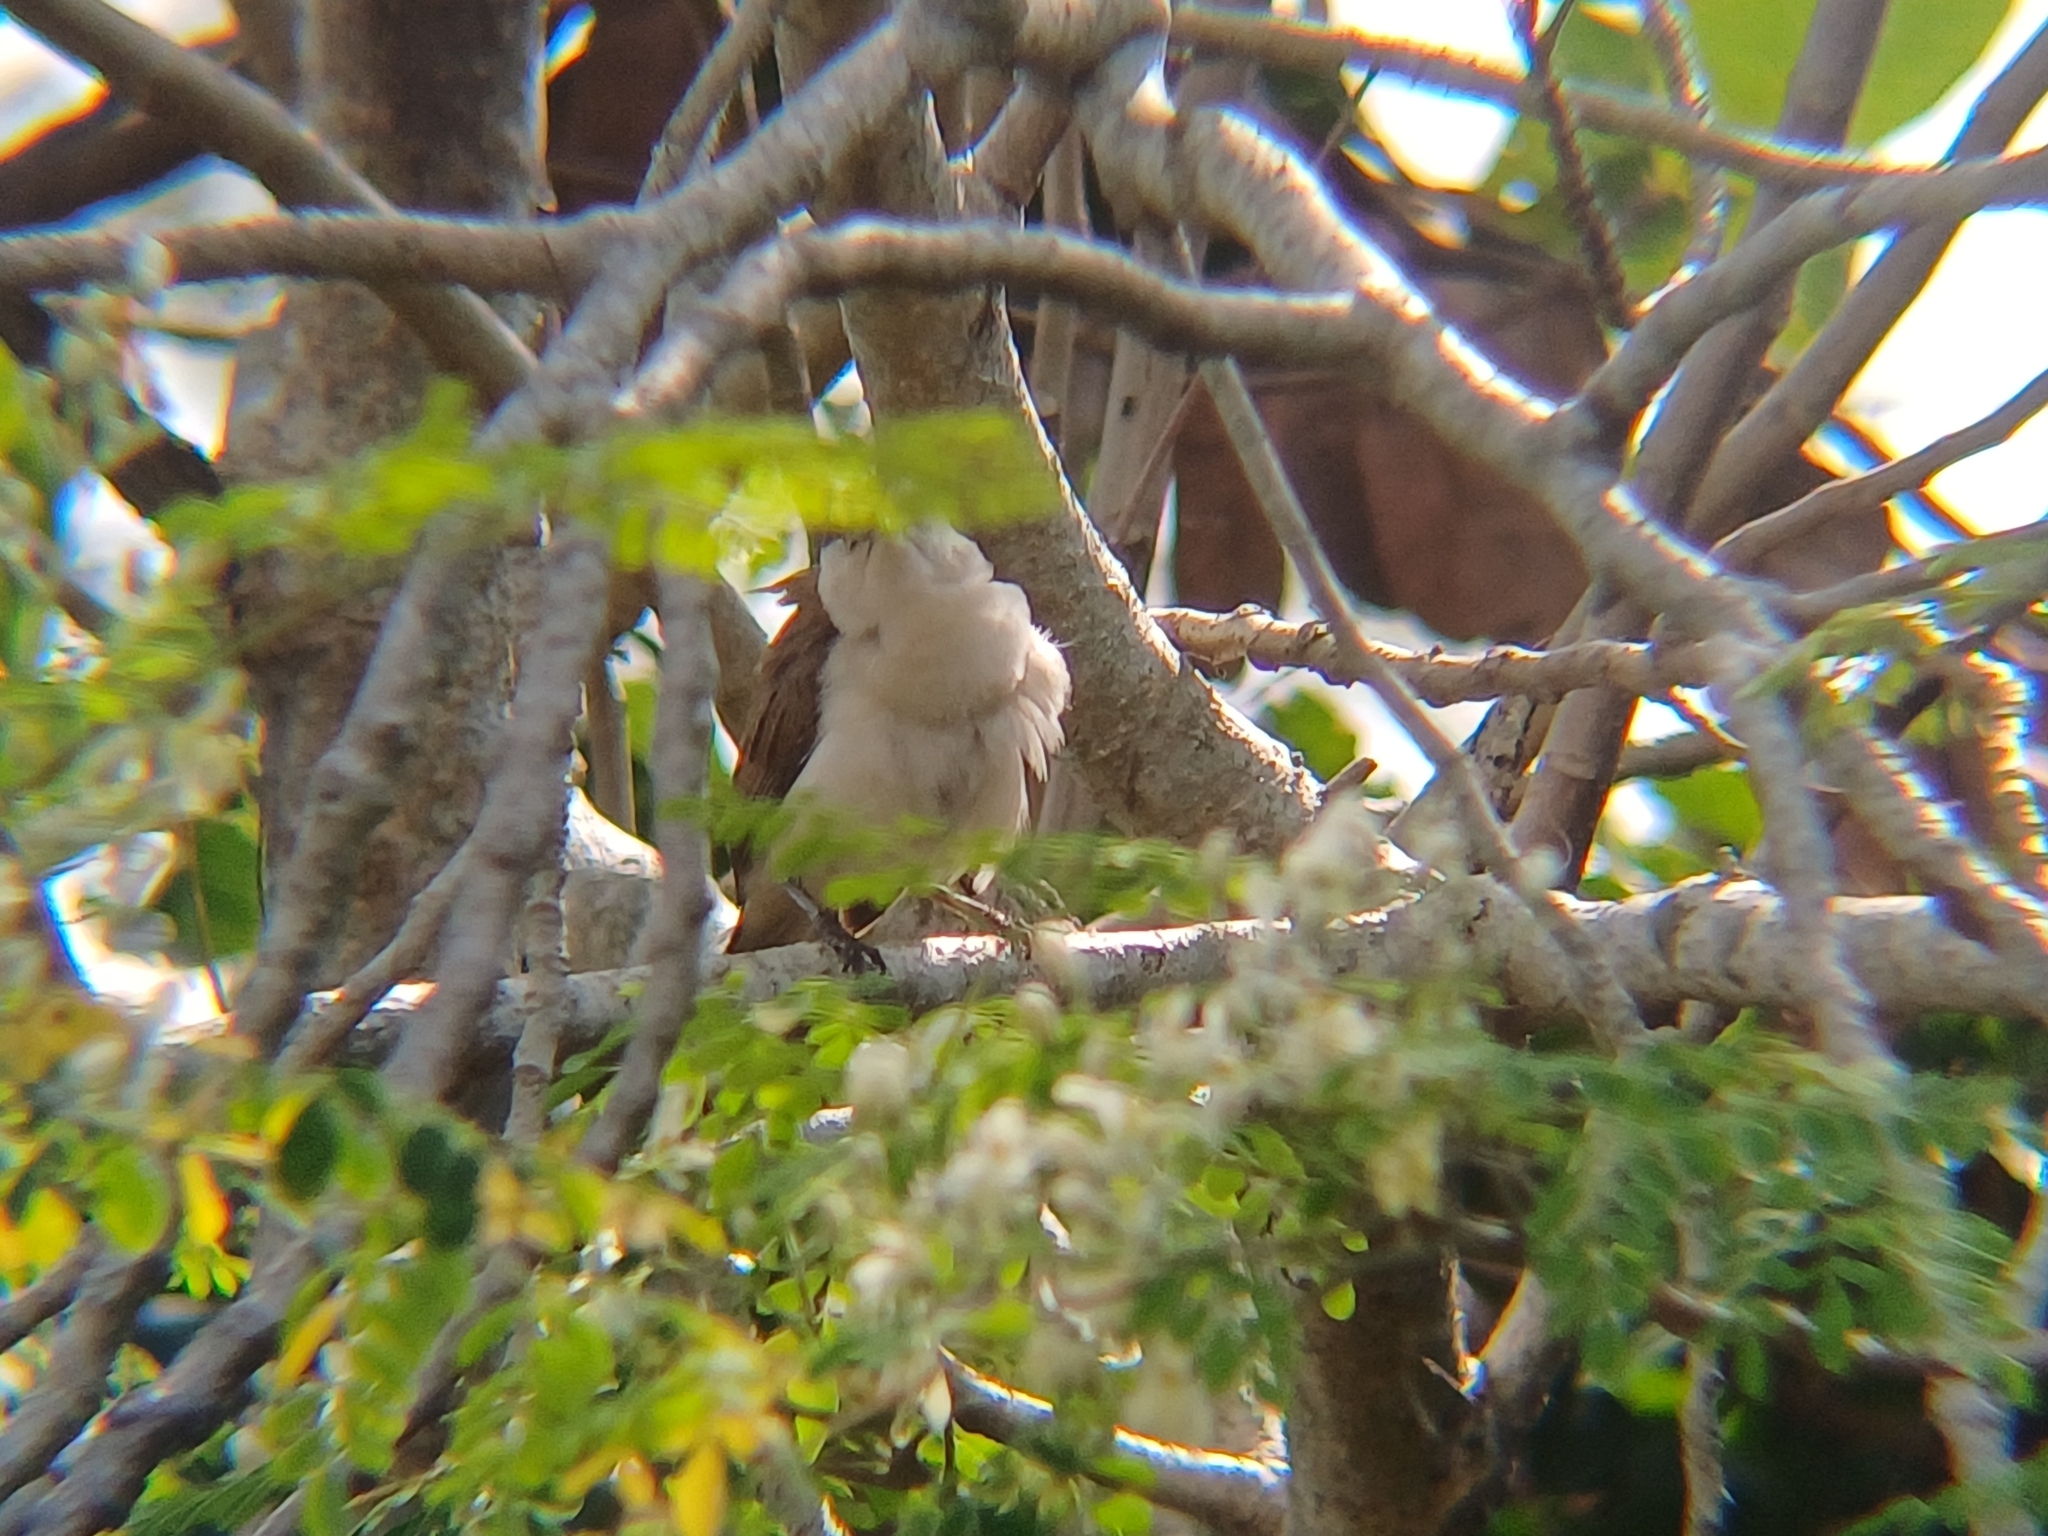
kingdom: Animalia
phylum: Chordata
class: Aves
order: Passeriformes
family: Troglodytidae
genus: Campylorhynchus
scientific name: Campylorhynchus griseus
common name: Bicolored wren
